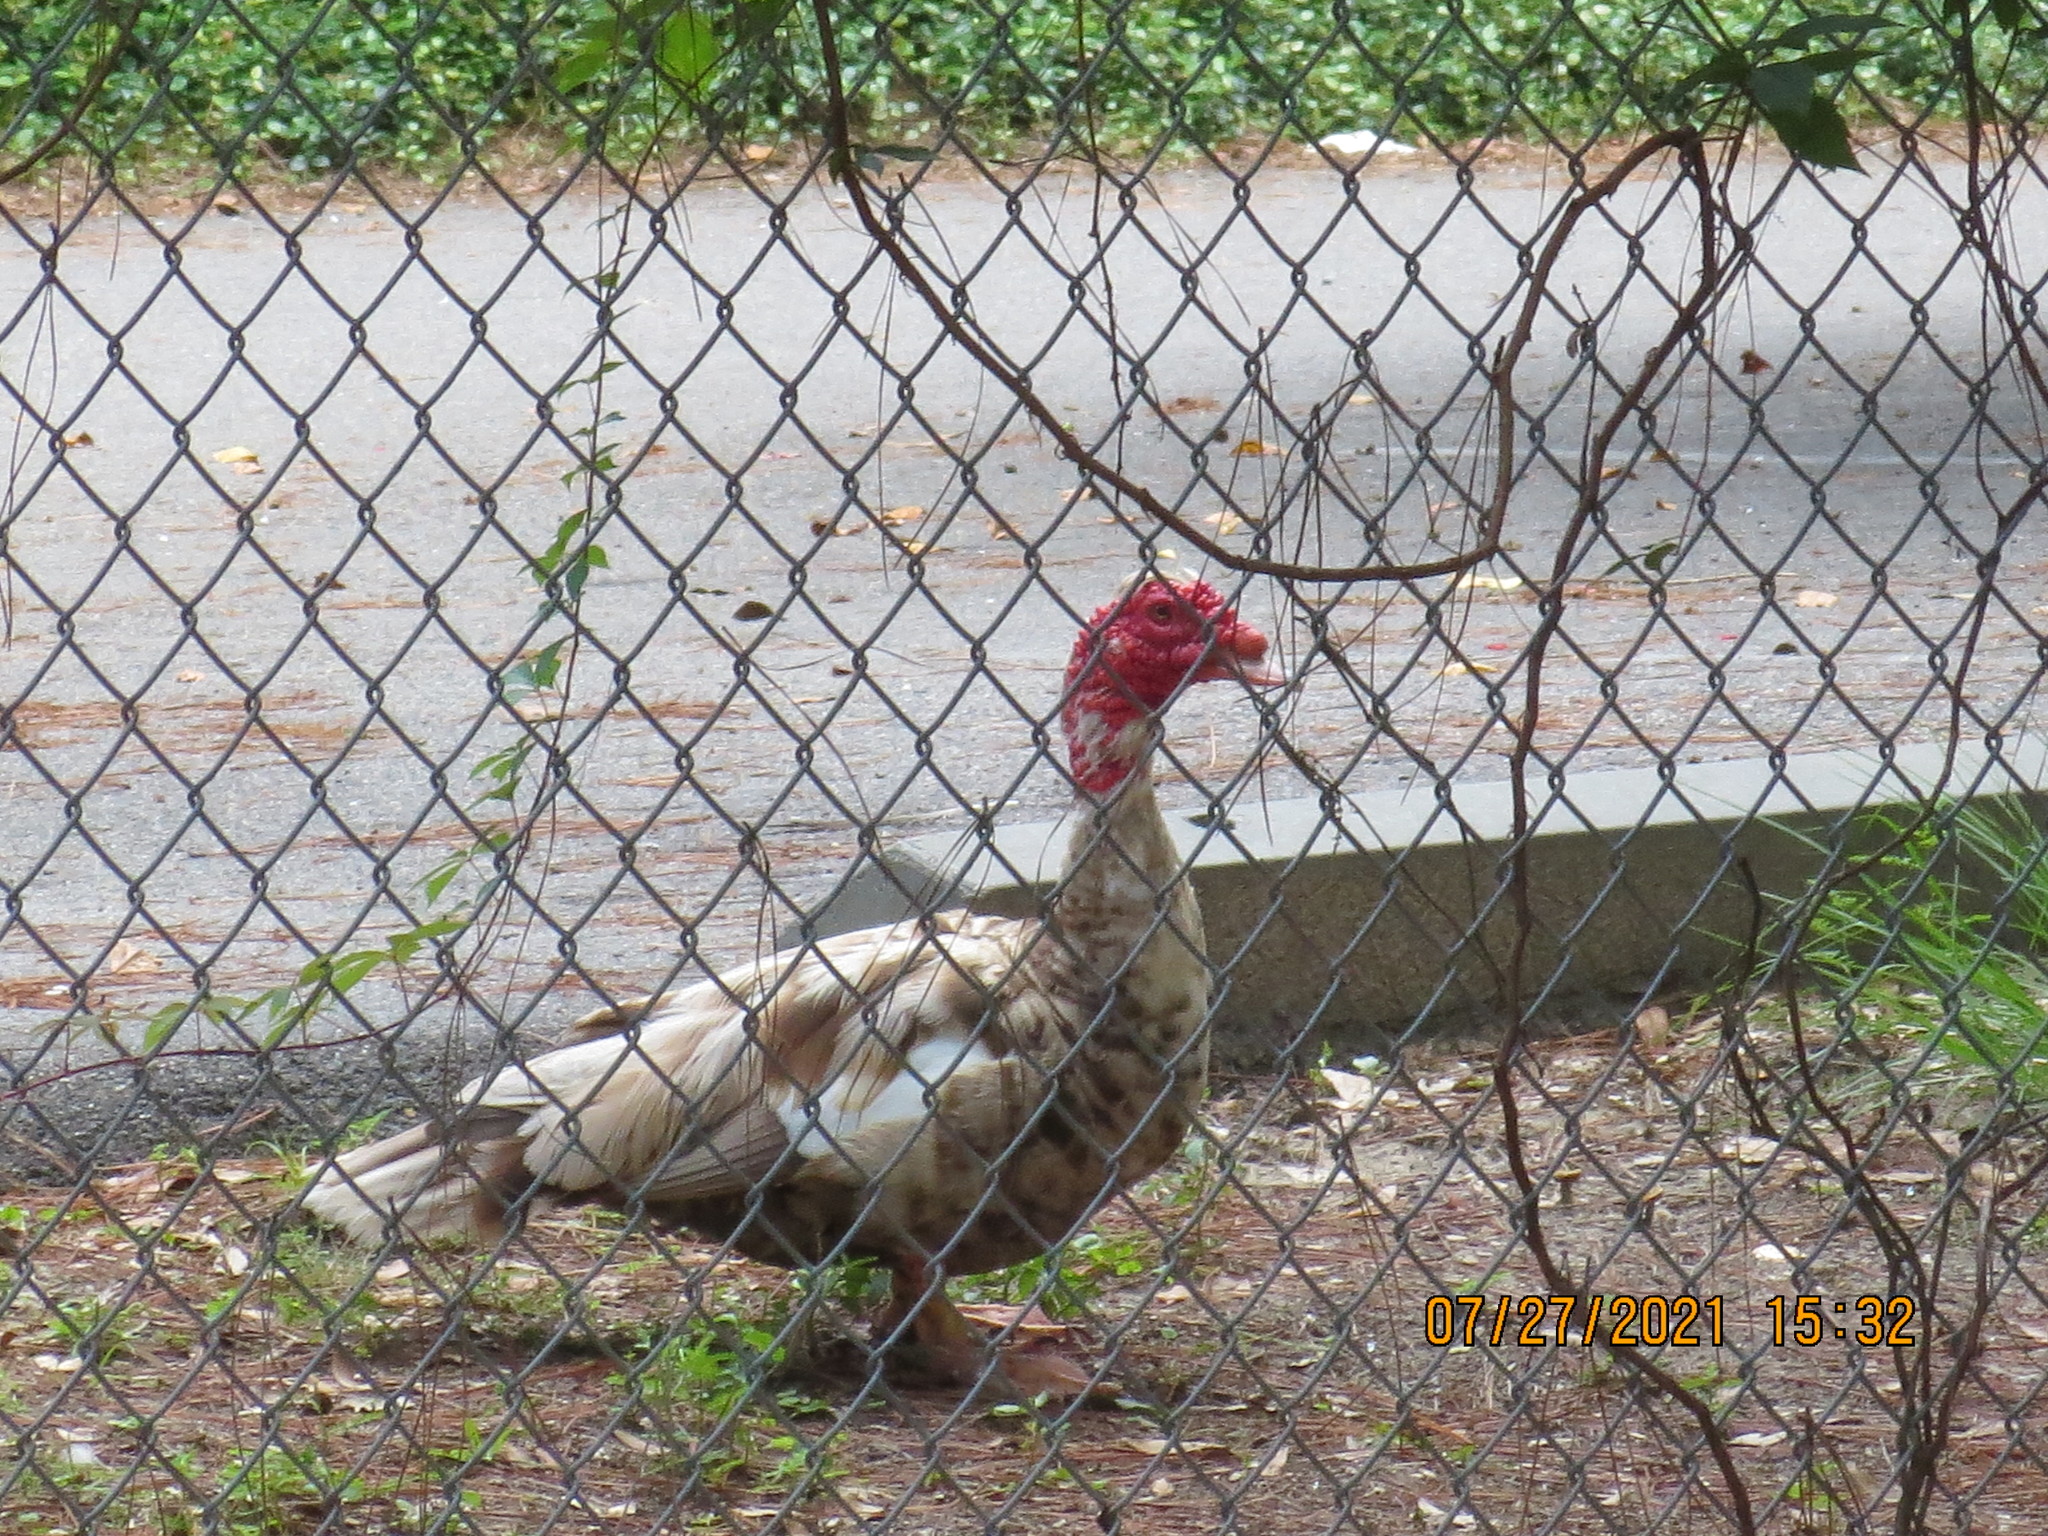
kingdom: Animalia
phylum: Chordata
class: Aves
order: Anseriformes
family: Anatidae
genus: Cairina
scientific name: Cairina moschata
